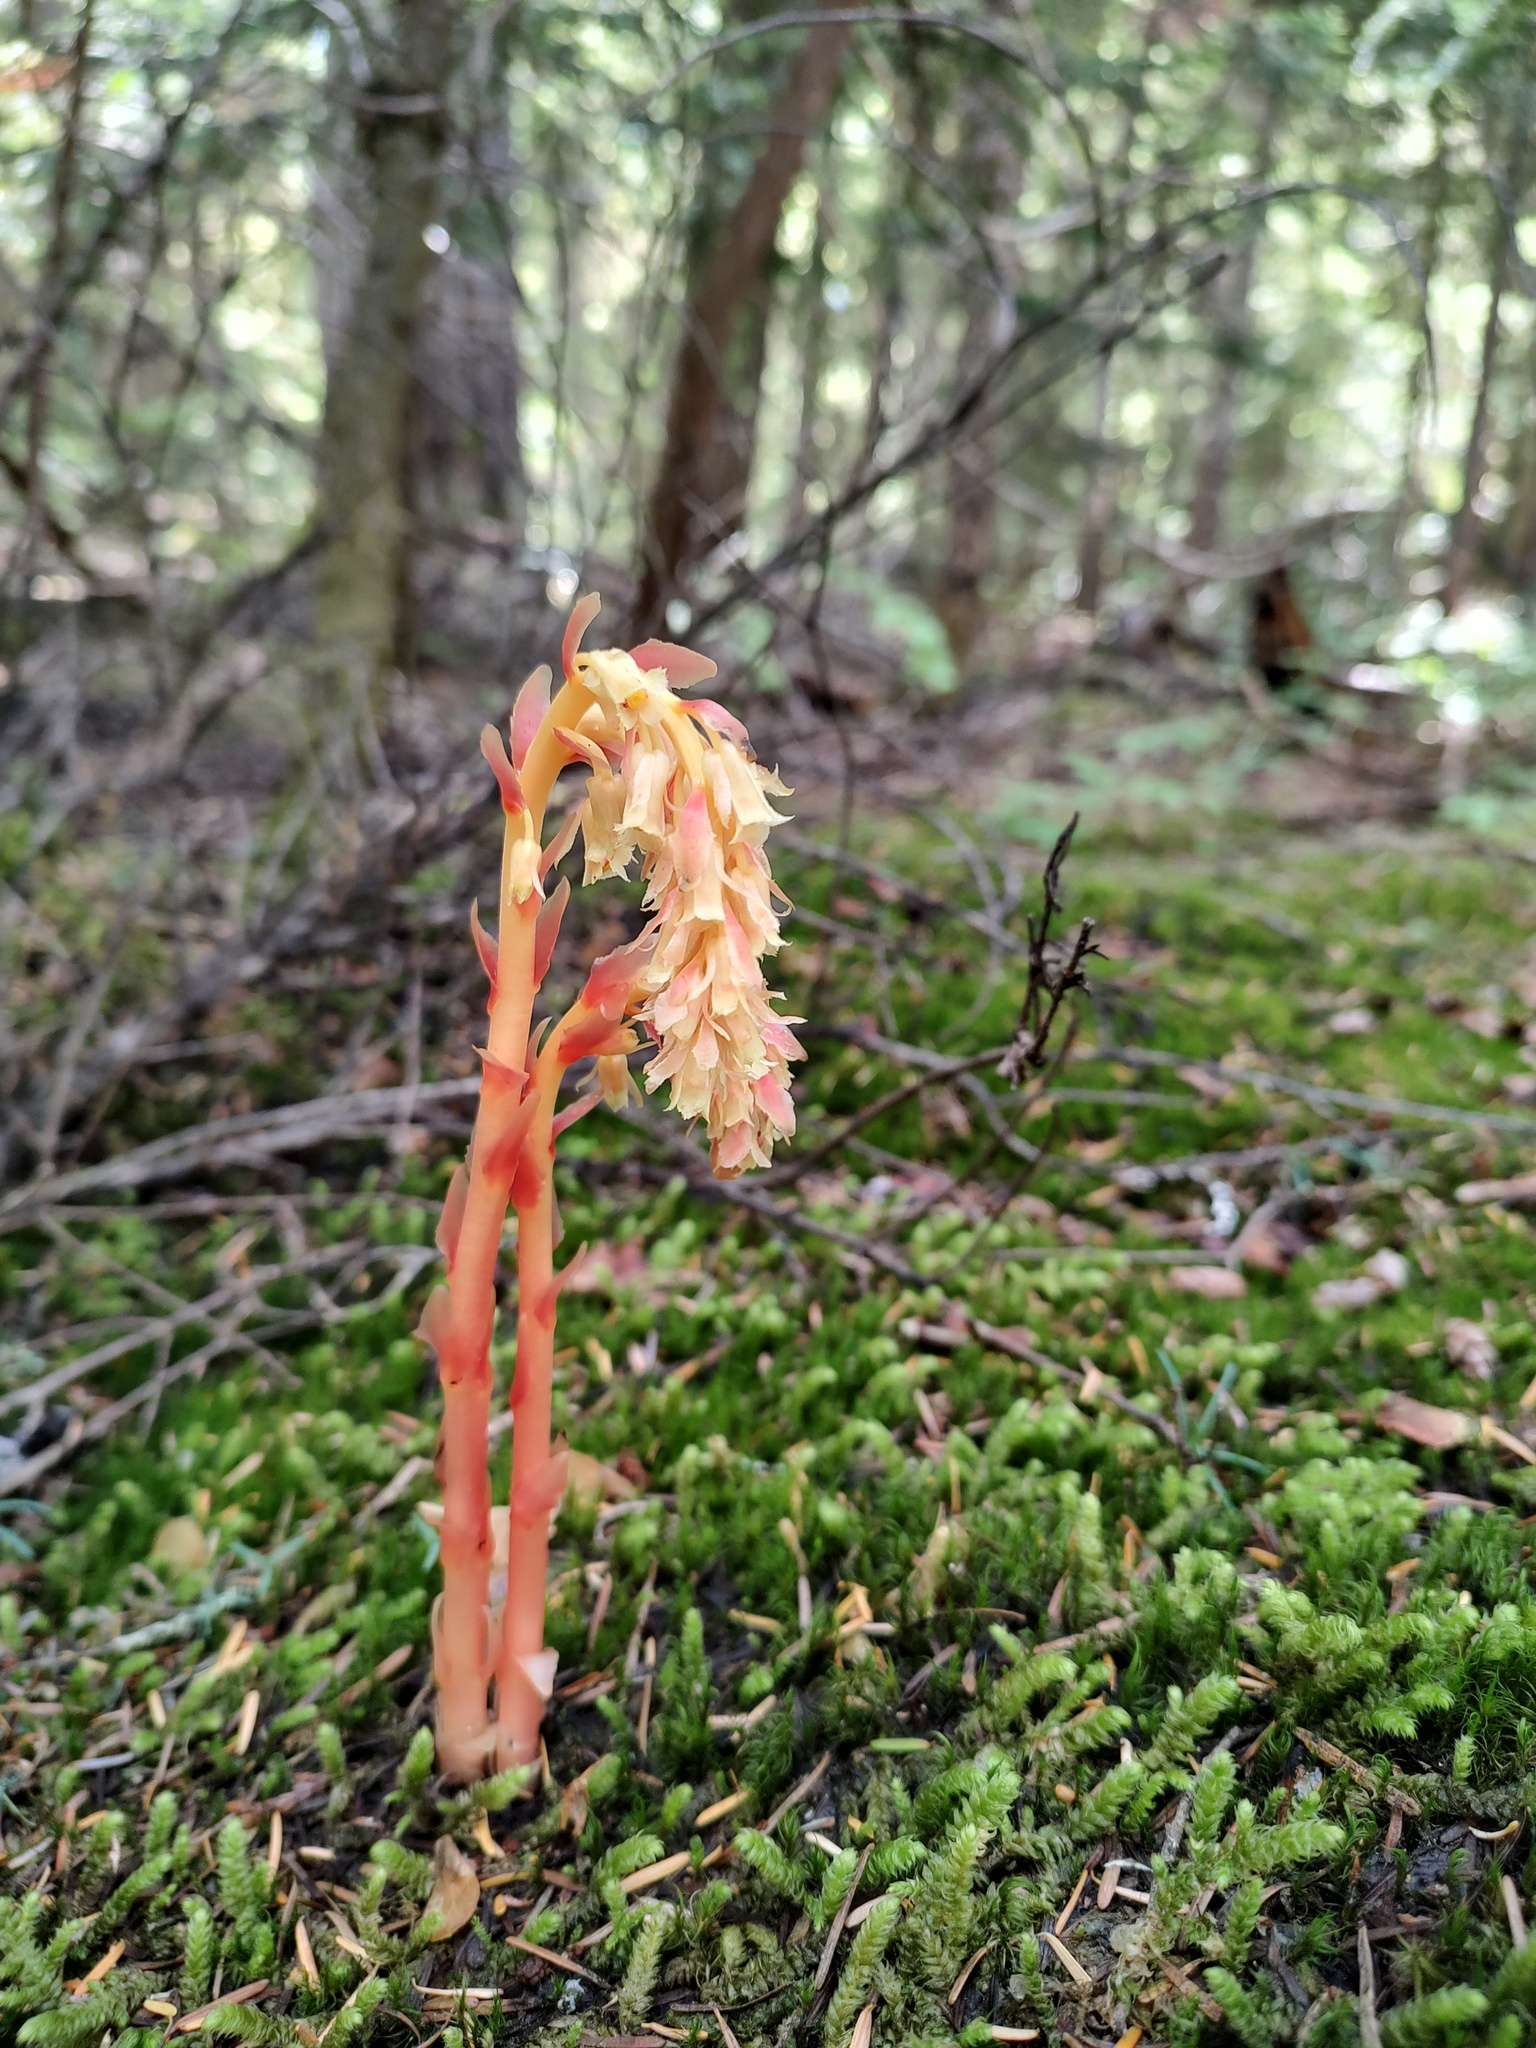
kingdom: Plantae
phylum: Tracheophyta
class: Magnoliopsida
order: Ericales
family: Ericaceae
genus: Hypopitys
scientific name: Hypopitys monotropa
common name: Yellow bird's-nest
